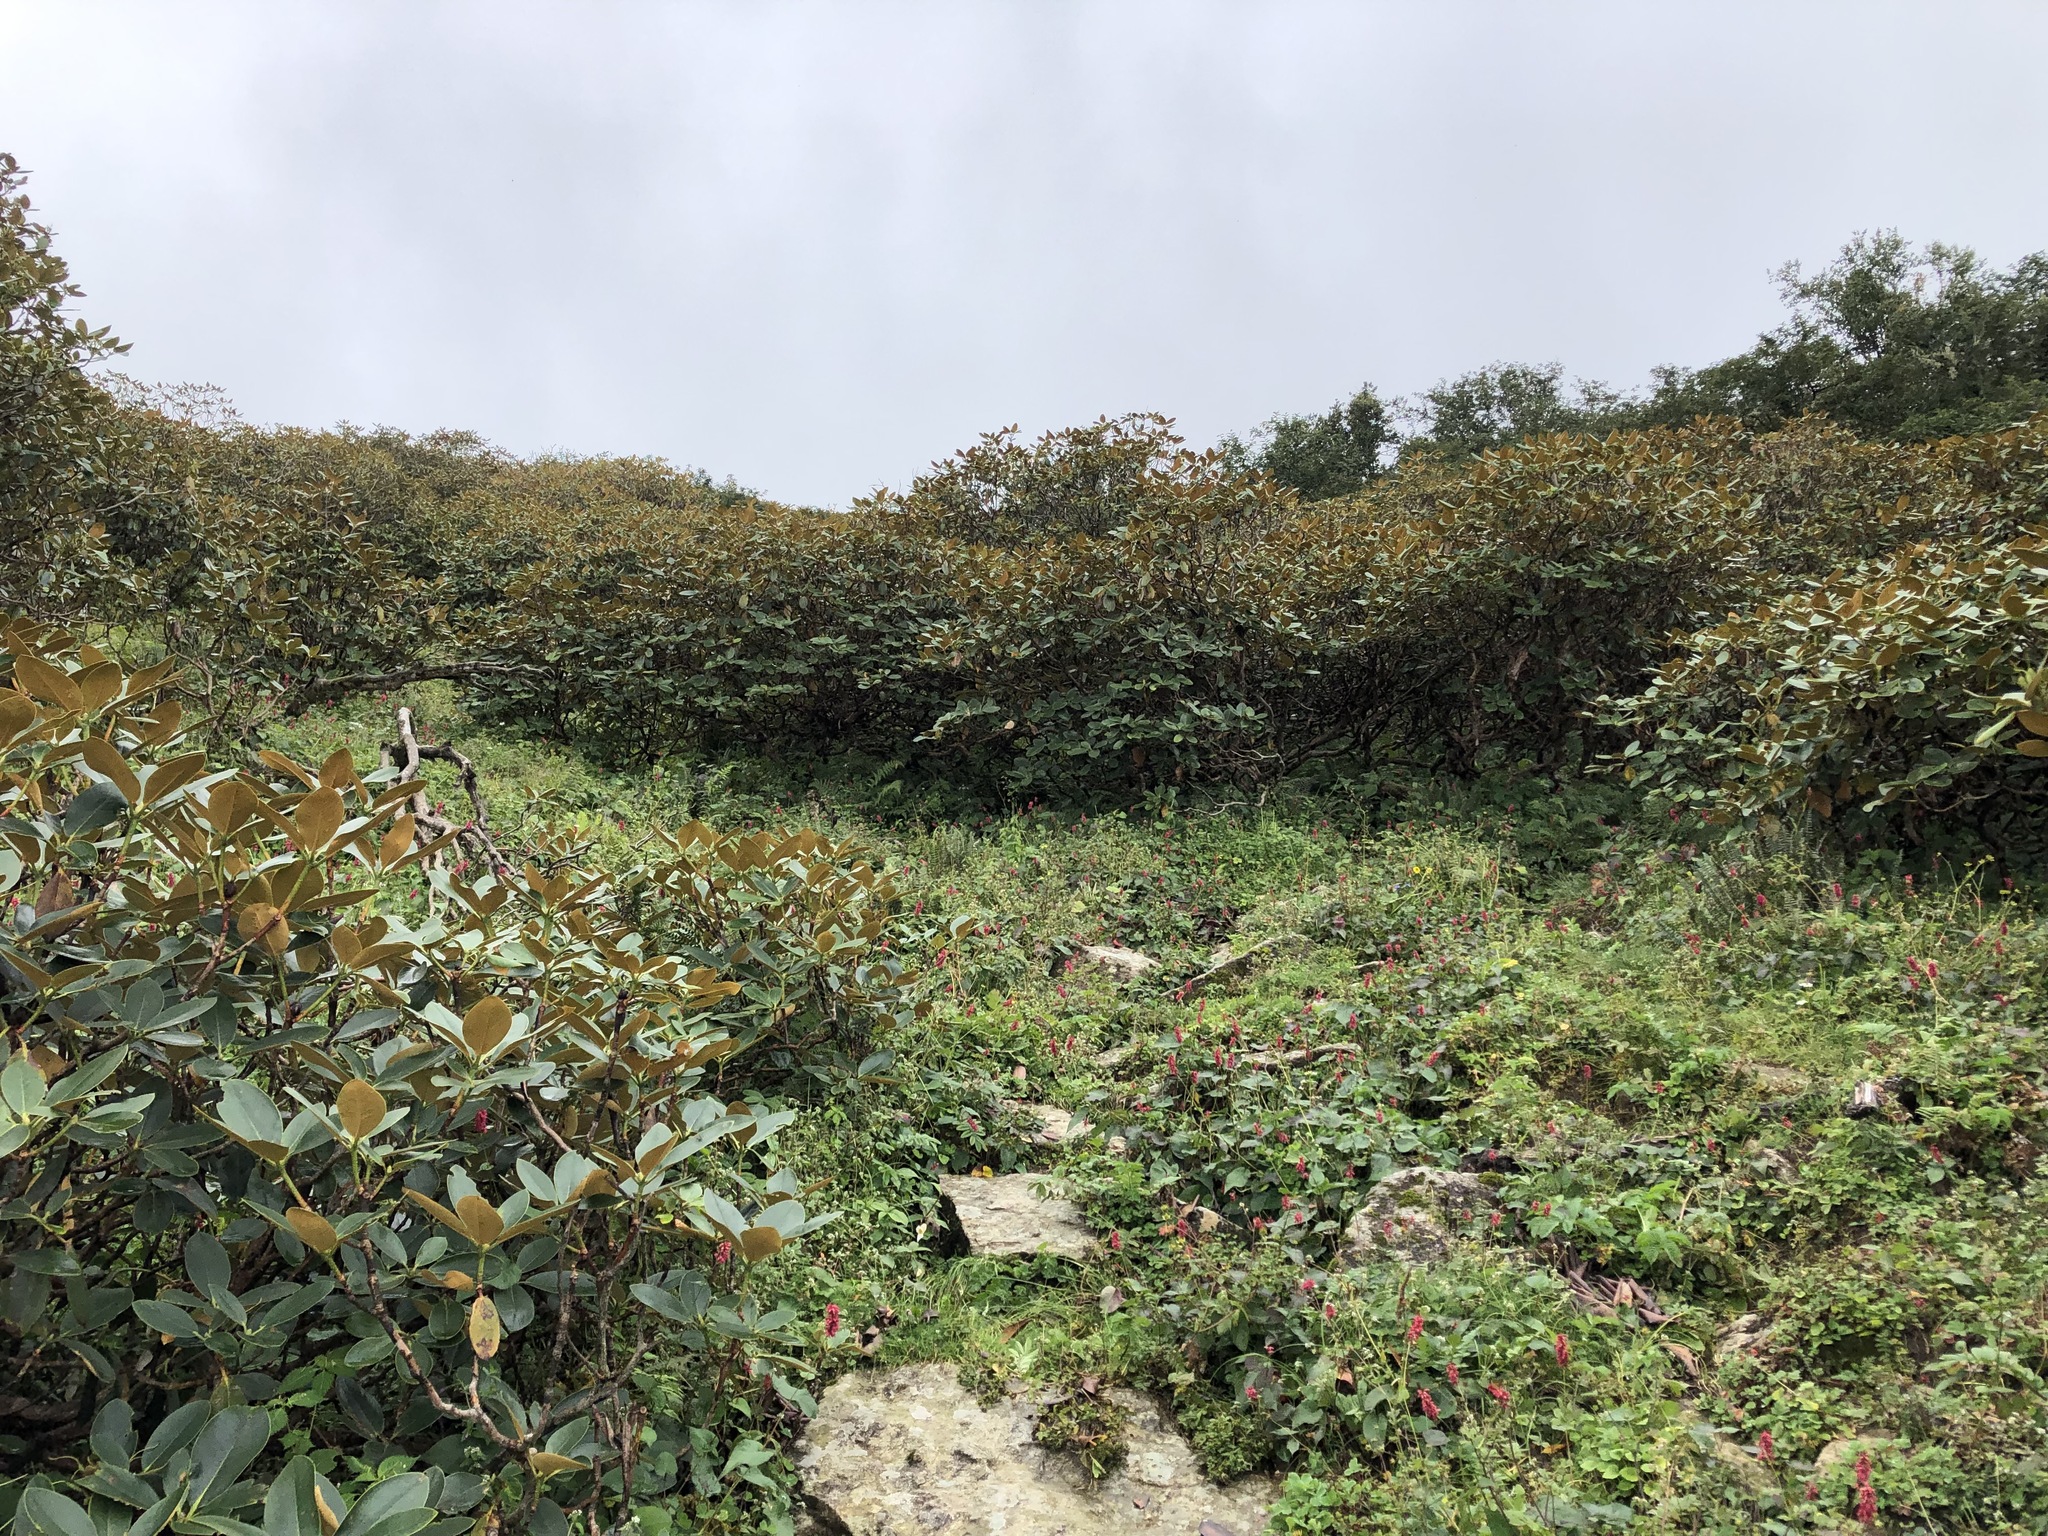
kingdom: Plantae
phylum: Tracheophyta
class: Magnoliopsida
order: Ericales
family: Ericaceae
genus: Rhododendron
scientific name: Rhododendron campanulatum
